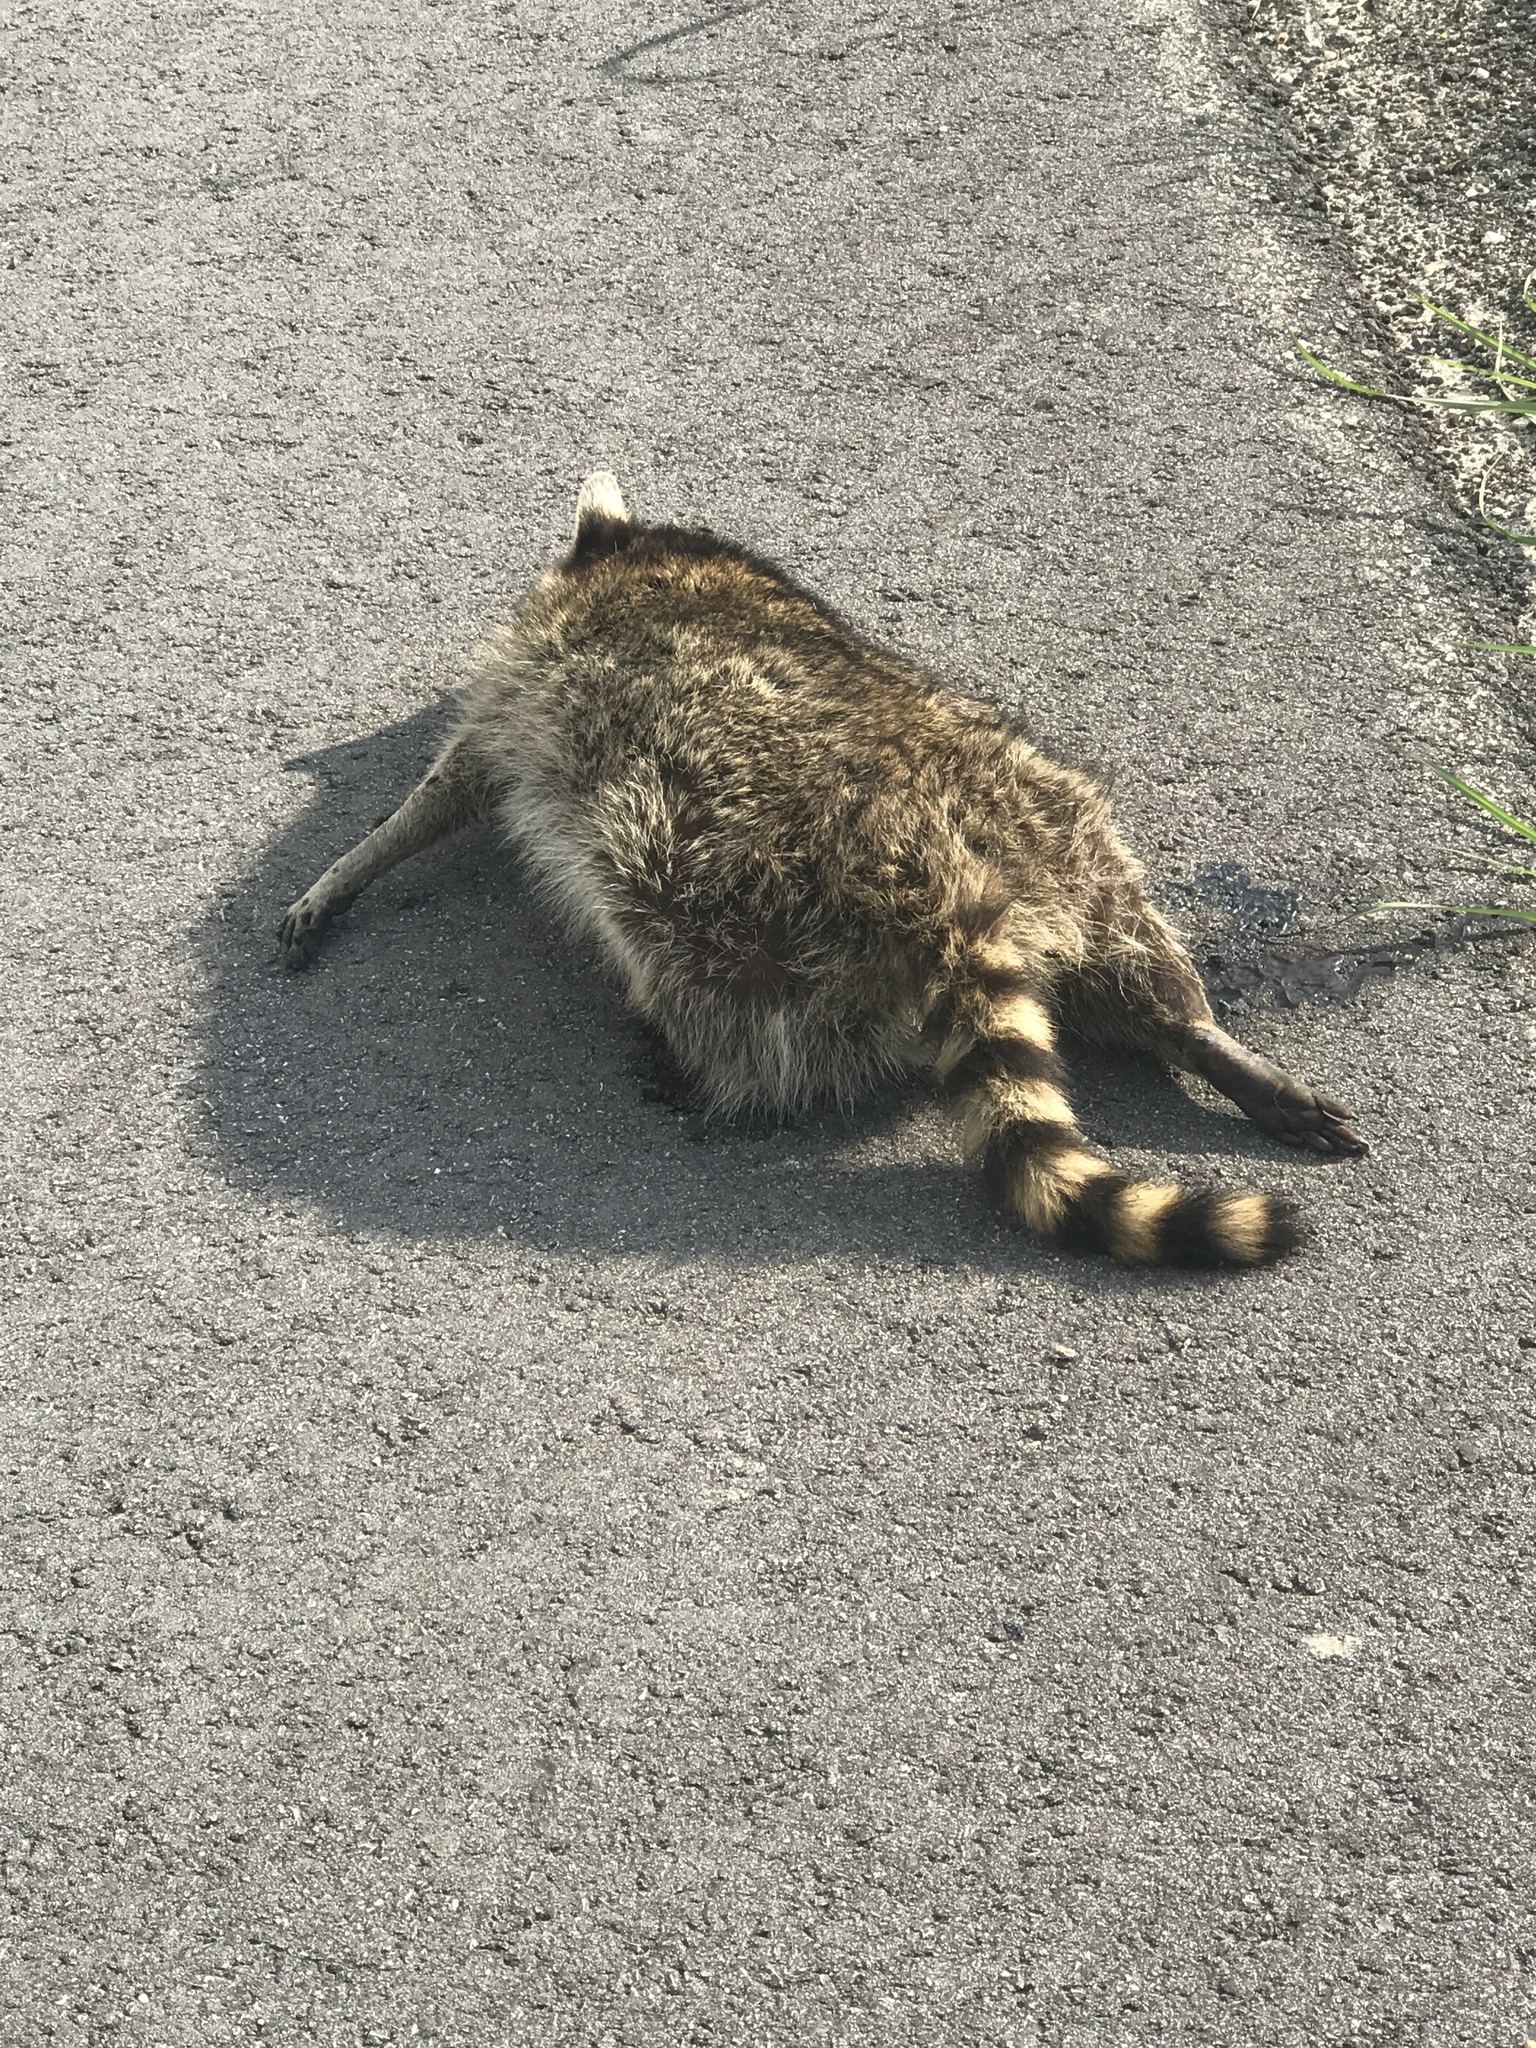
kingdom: Animalia
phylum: Chordata
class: Mammalia
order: Carnivora
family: Procyonidae
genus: Procyon
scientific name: Procyon lotor
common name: Raccoon
